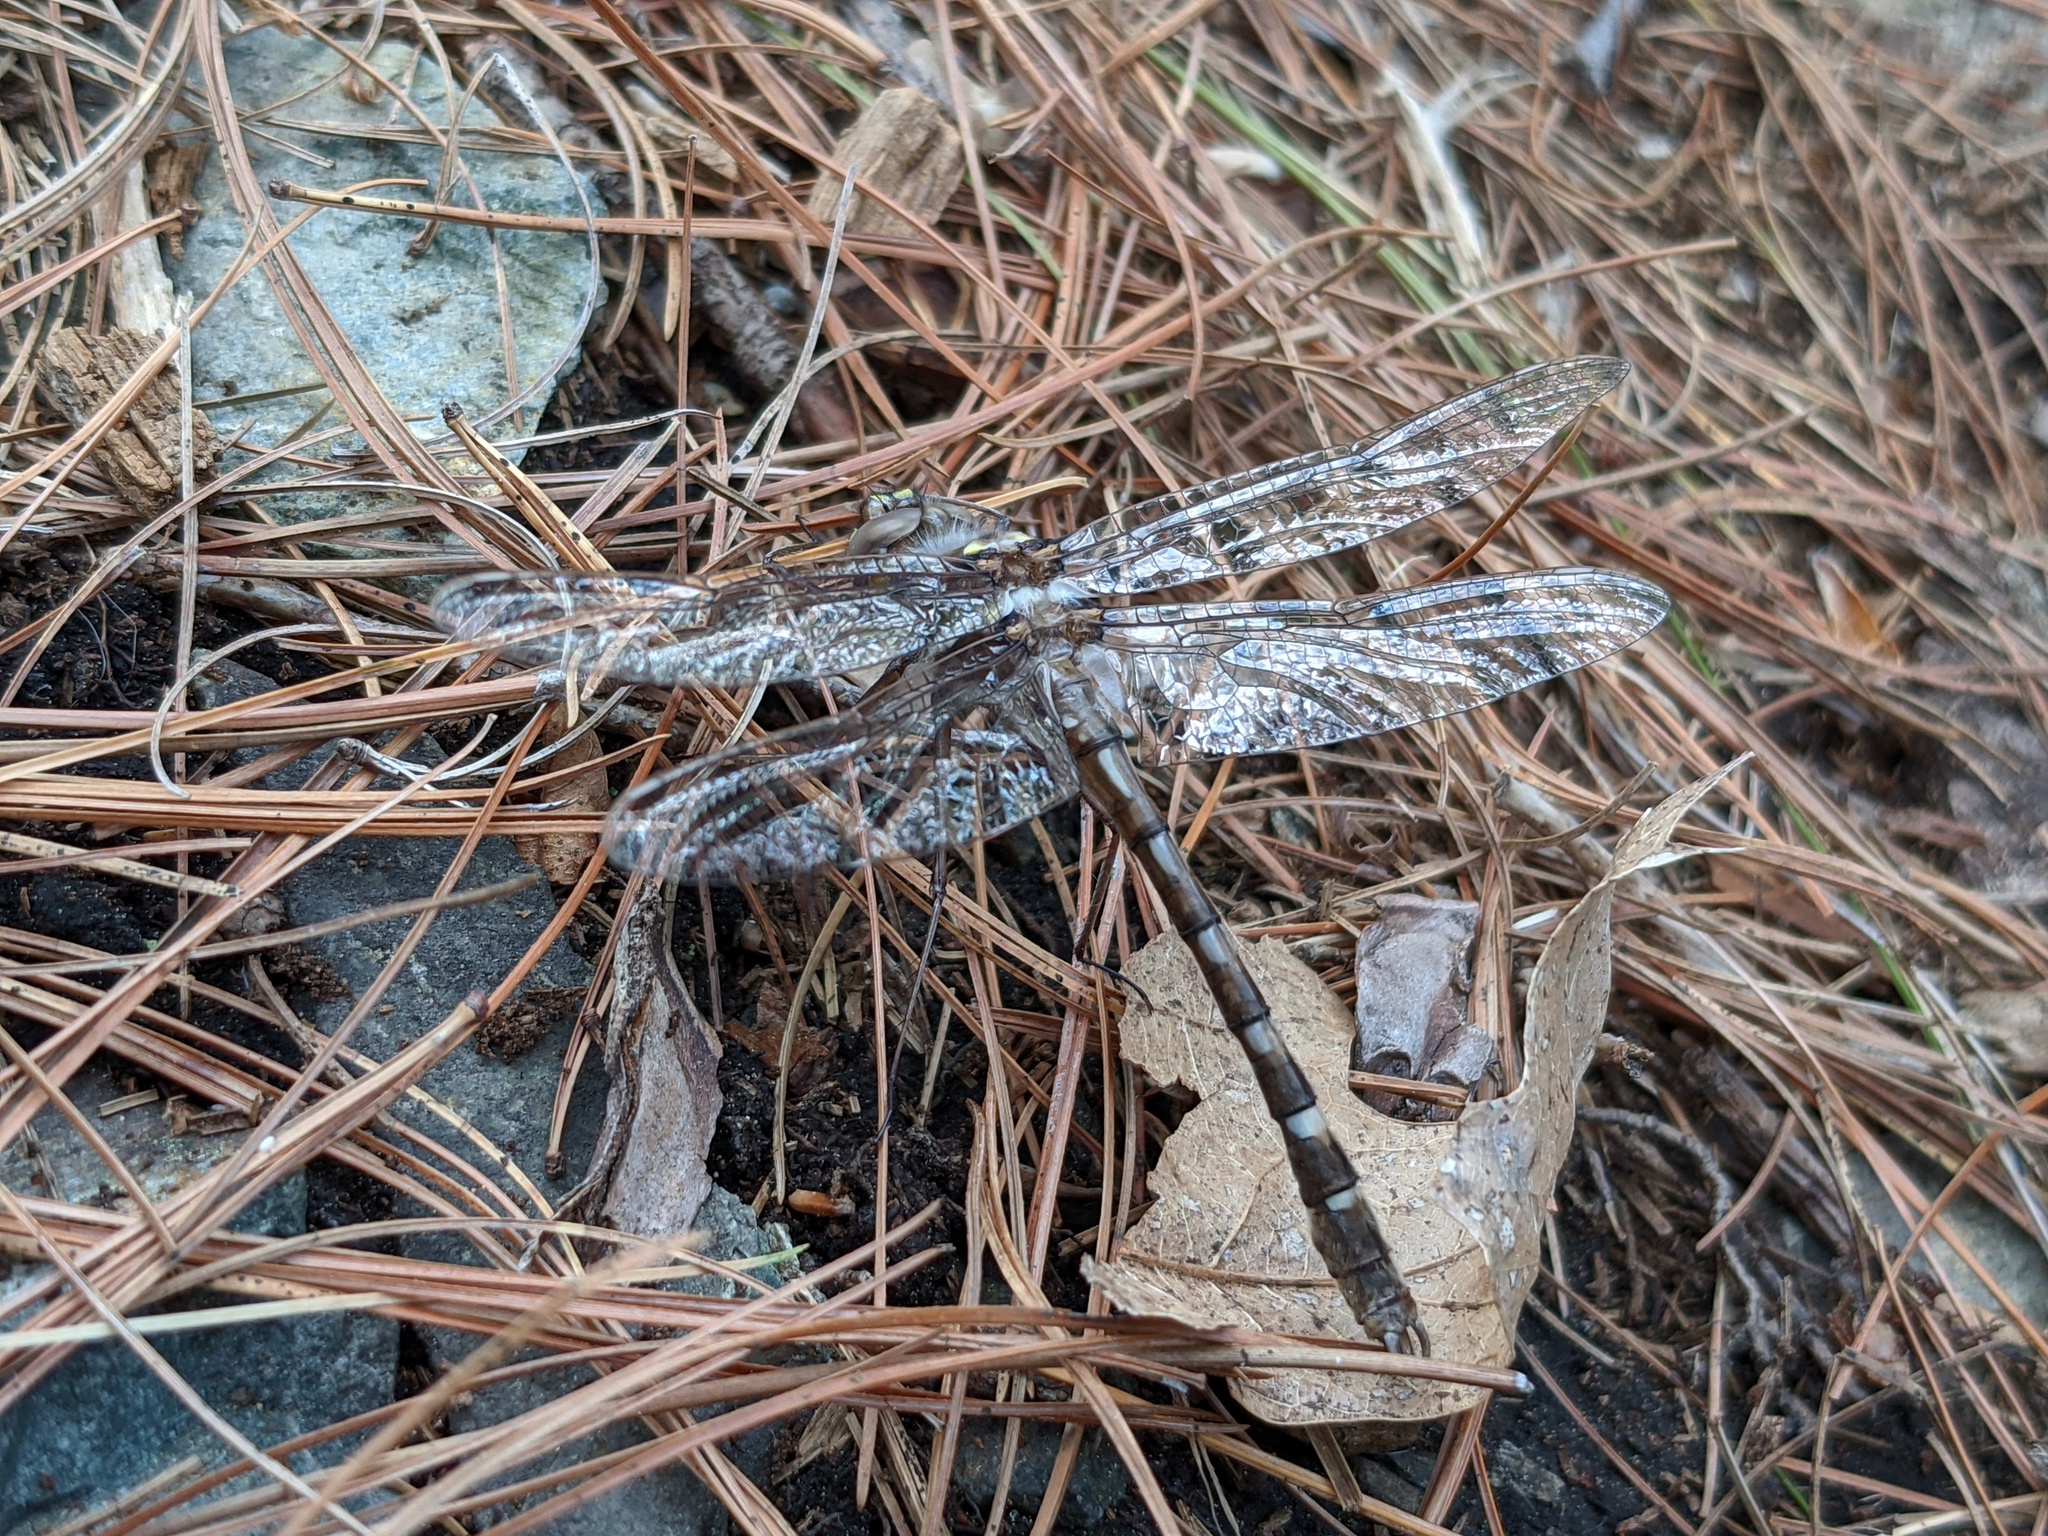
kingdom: Animalia
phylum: Arthropoda
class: Insecta
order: Odonata
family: Macromiidae
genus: Didymops
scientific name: Didymops transversa
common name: Stream cruiser
